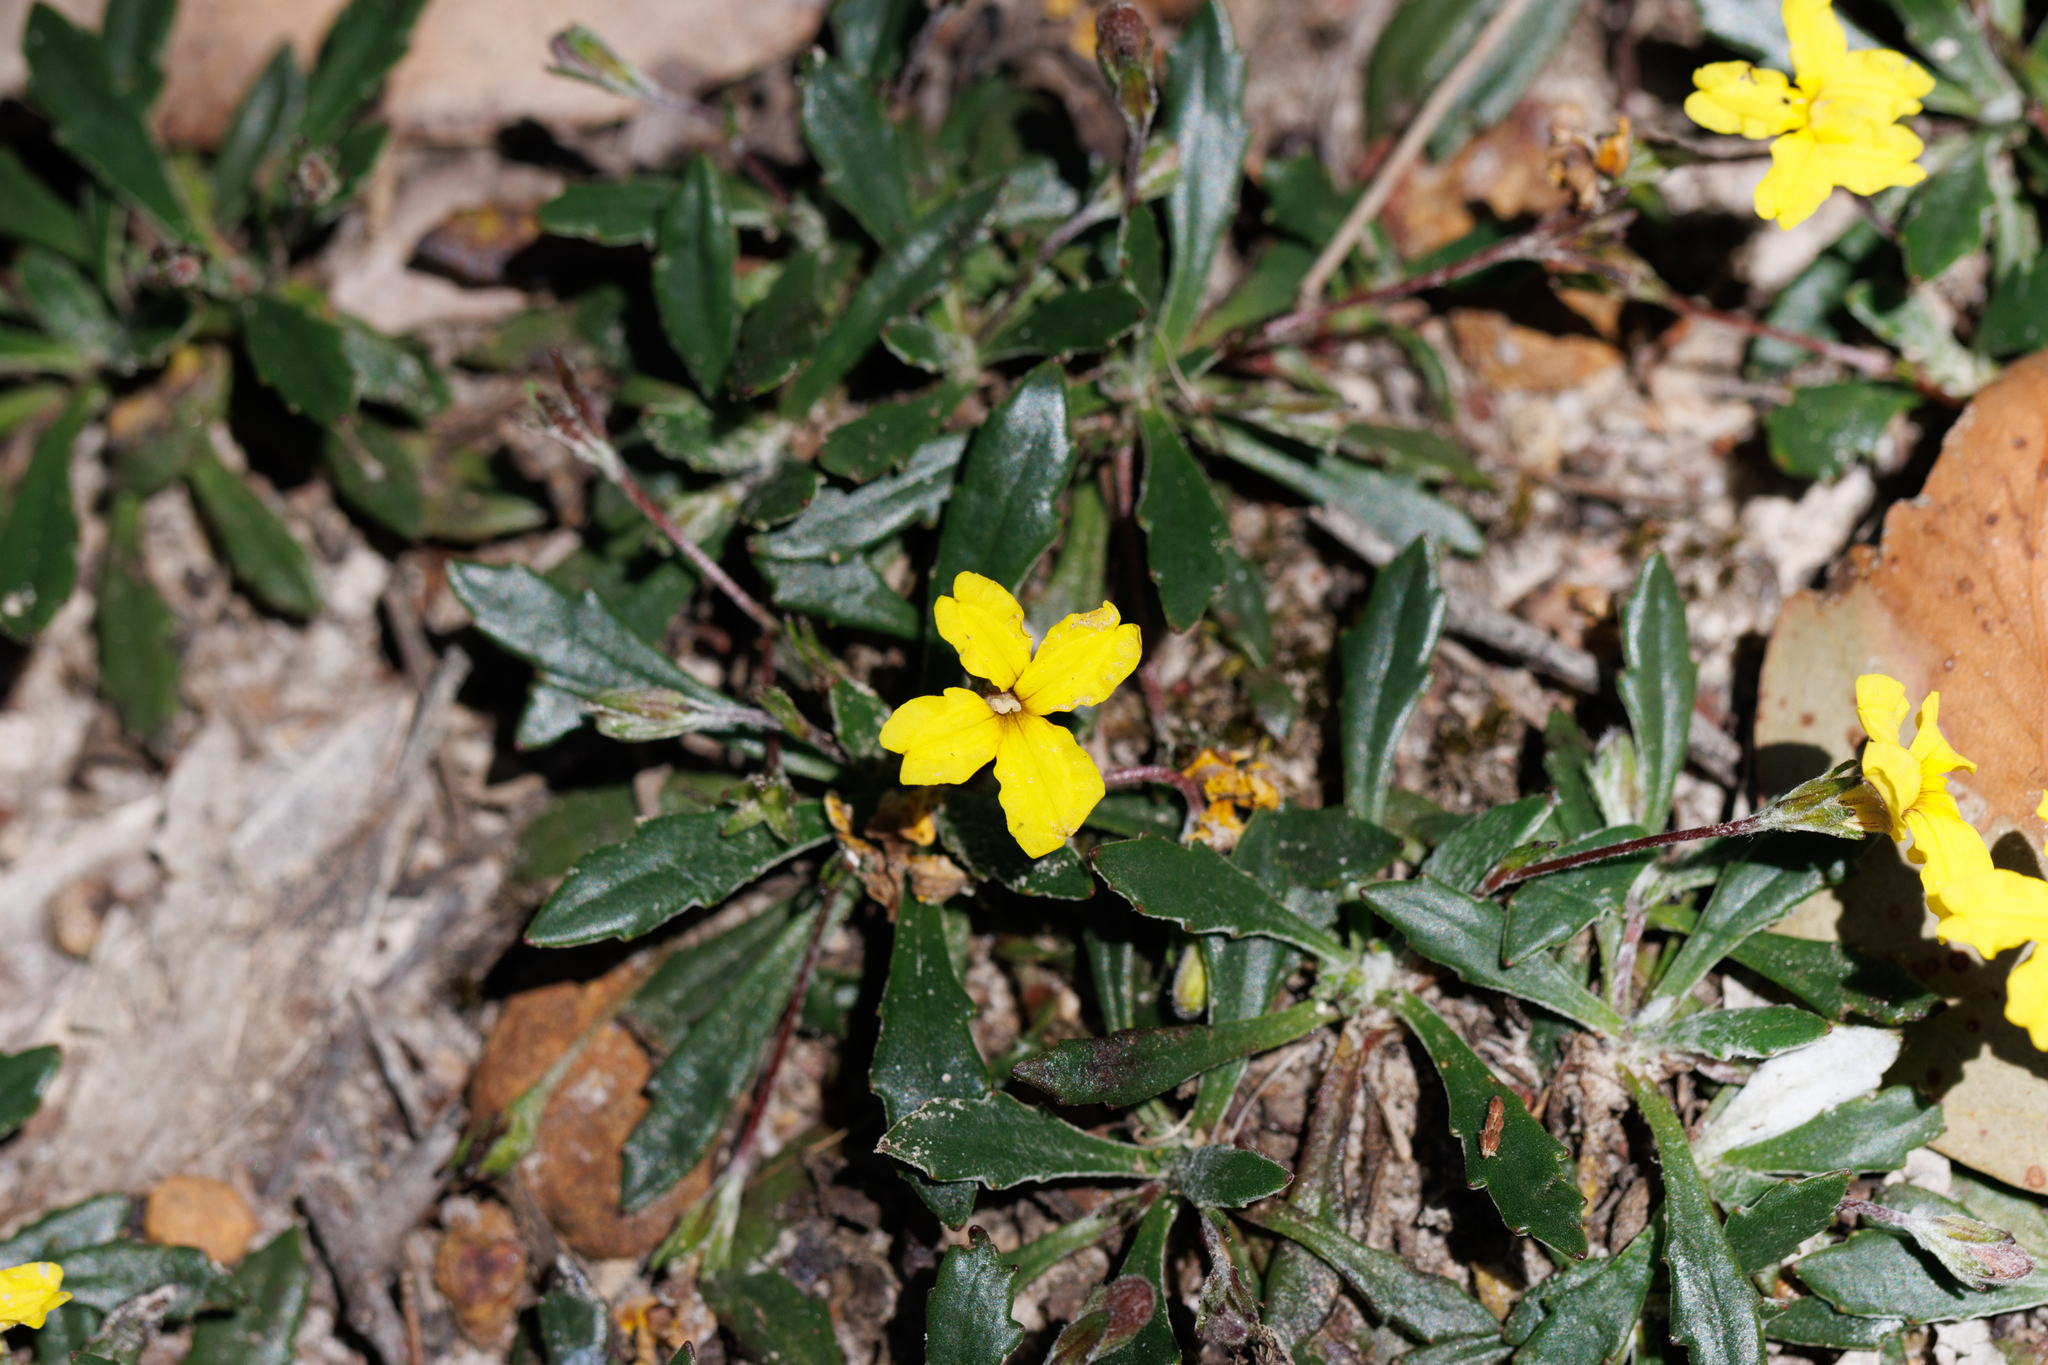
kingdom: Plantae
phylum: Tracheophyta
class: Magnoliopsida
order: Asterales
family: Goodeniaceae
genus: Goodenia
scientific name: Goodenia blackiana
